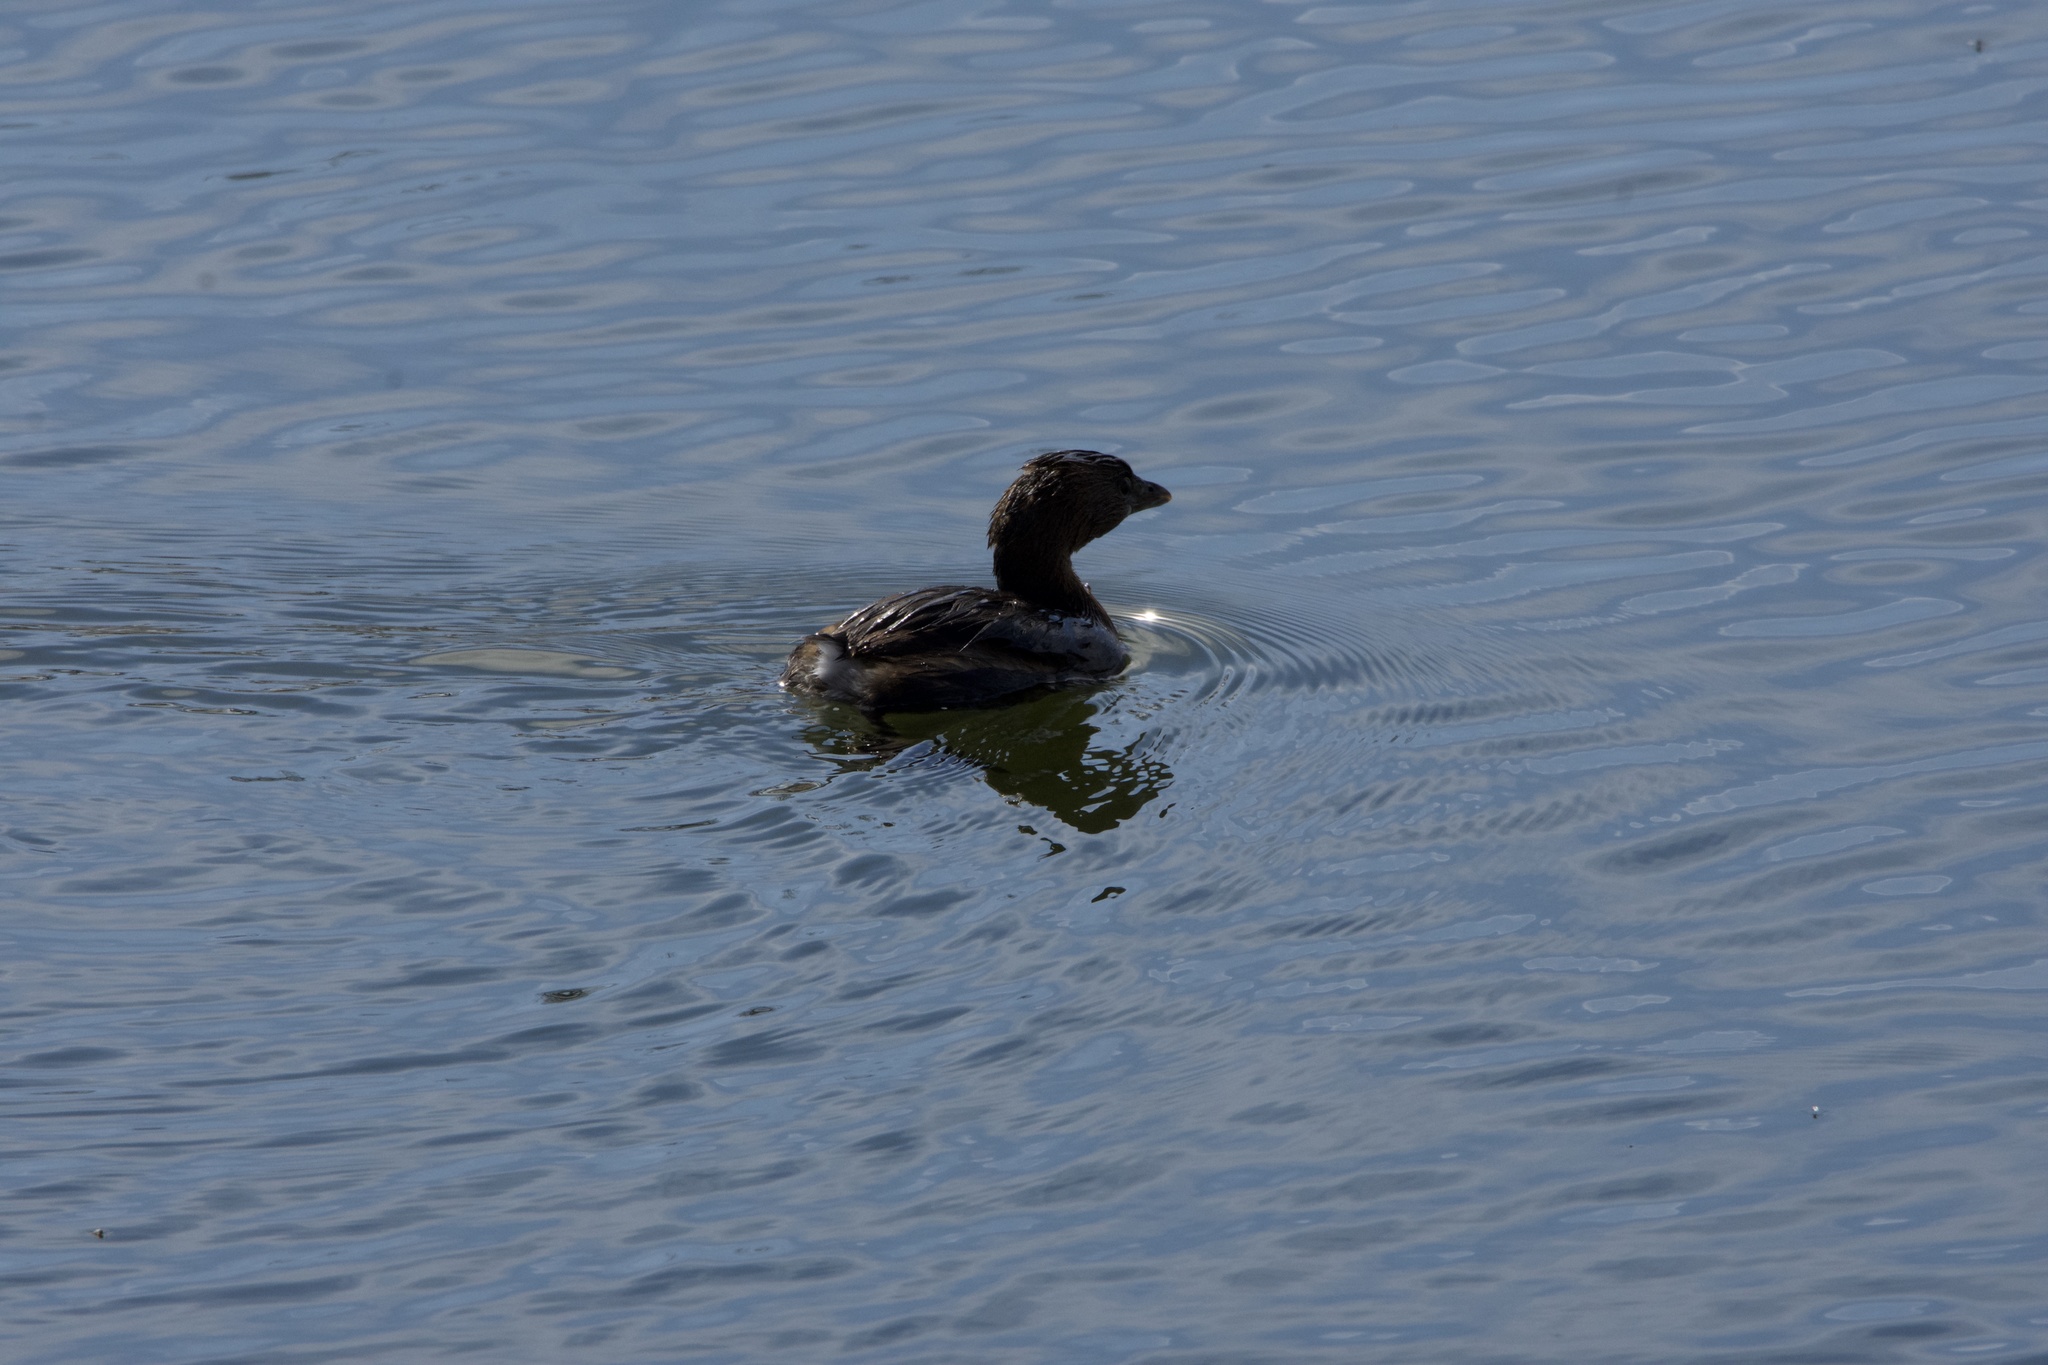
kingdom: Animalia
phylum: Chordata
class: Aves
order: Podicipediformes
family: Podicipedidae
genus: Podilymbus
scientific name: Podilymbus podiceps
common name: Pied-billed grebe
